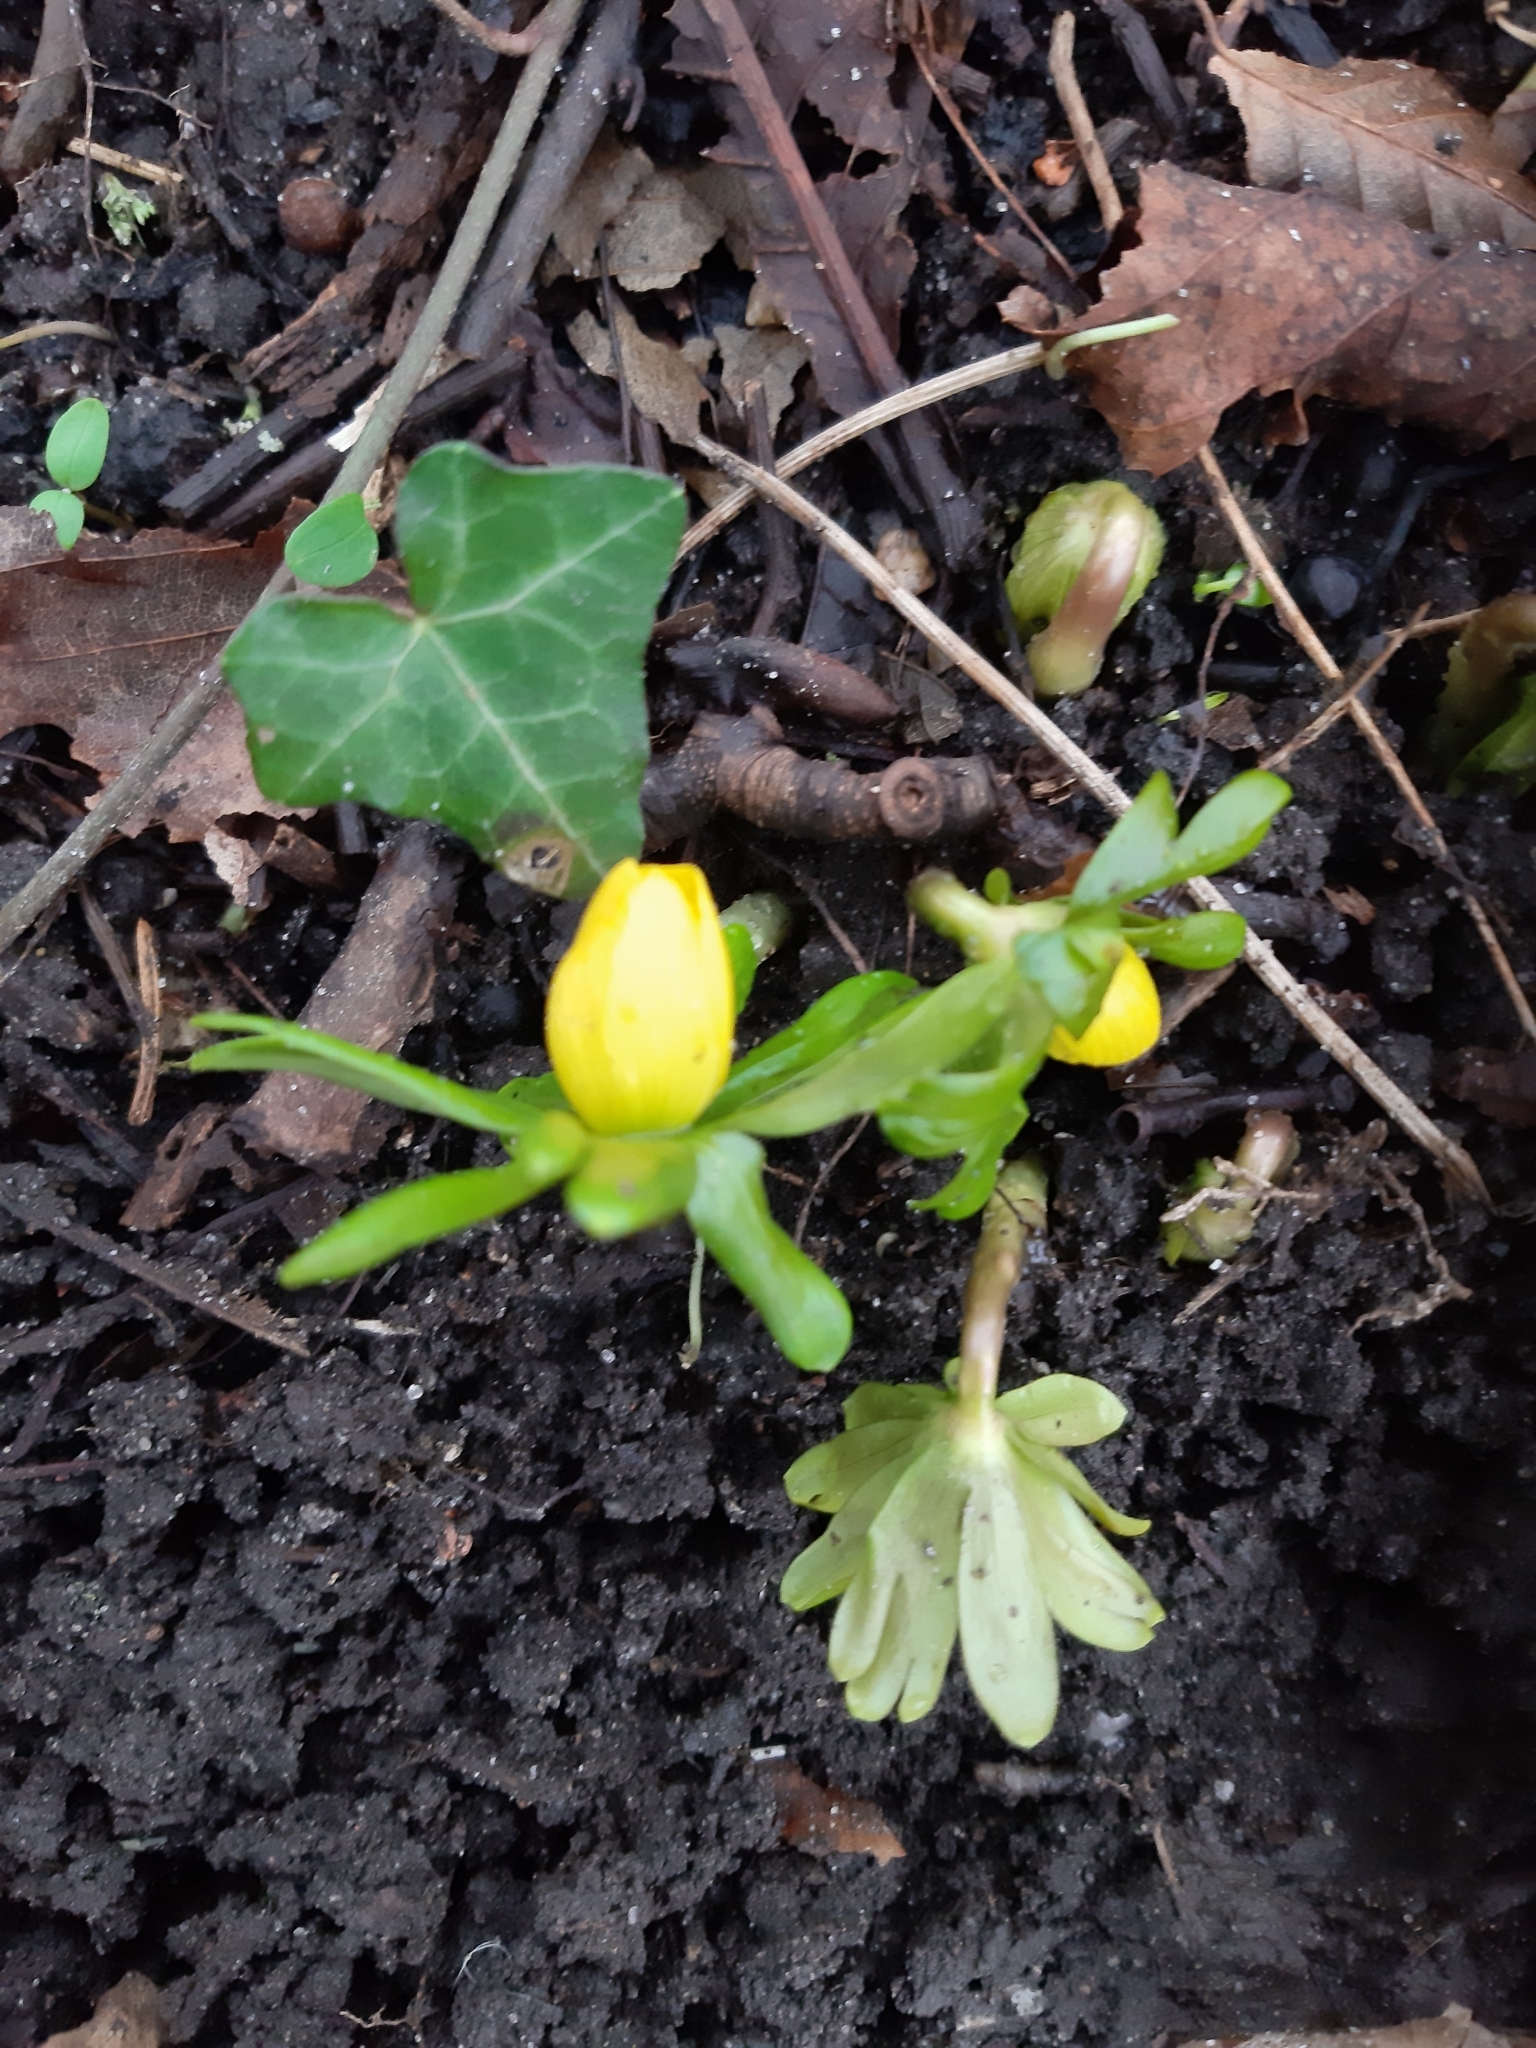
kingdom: Plantae
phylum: Tracheophyta
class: Magnoliopsida
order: Ranunculales
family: Ranunculaceae
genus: Eranthis
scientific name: Eranthis hyemalis
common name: Winter aconite
